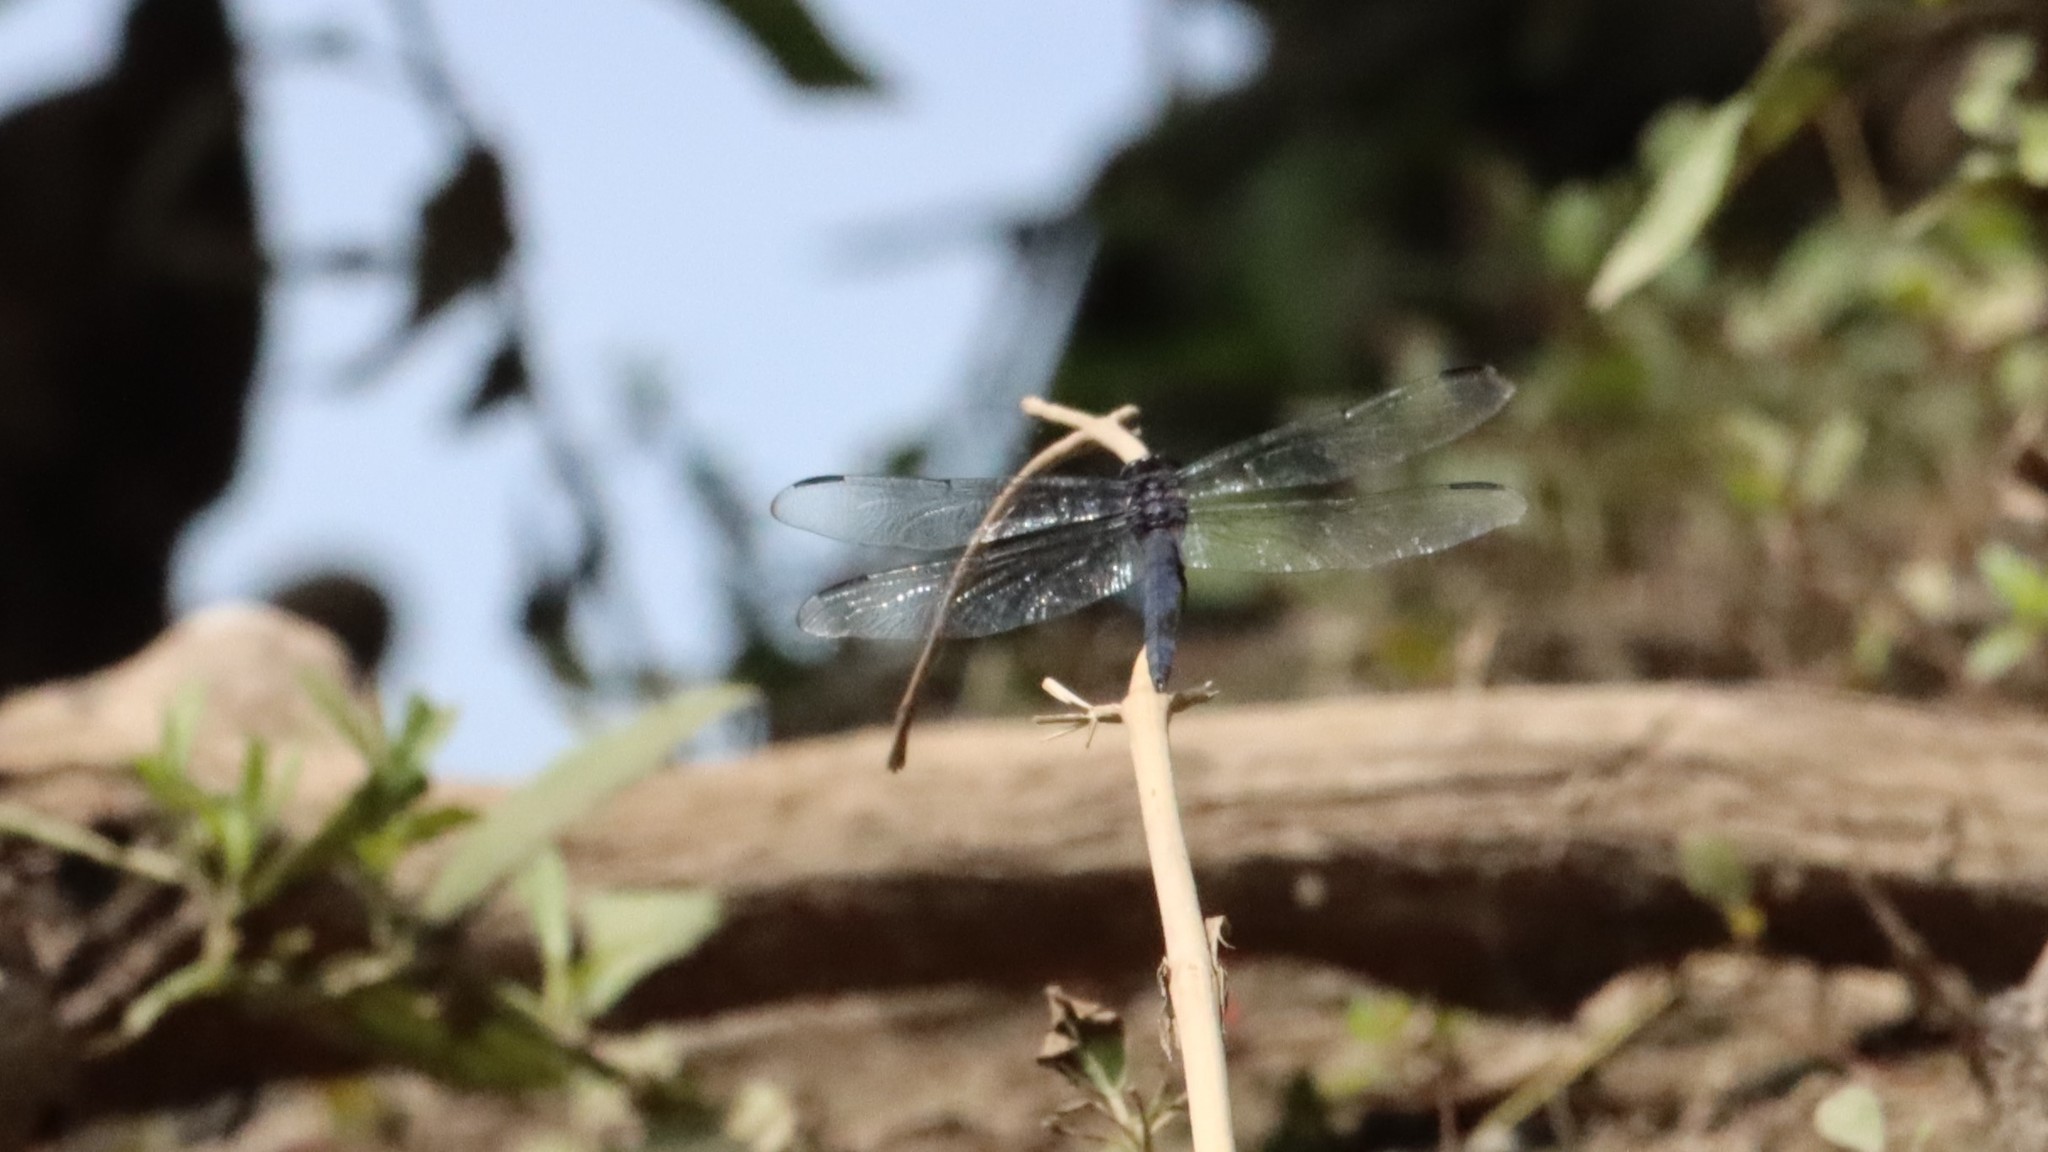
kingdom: Animalia
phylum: Arthropoda
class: Insecta
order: Odonata
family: Libellulidae
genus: Libellula
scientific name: Libellula incesta
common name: Slaty skimmer
